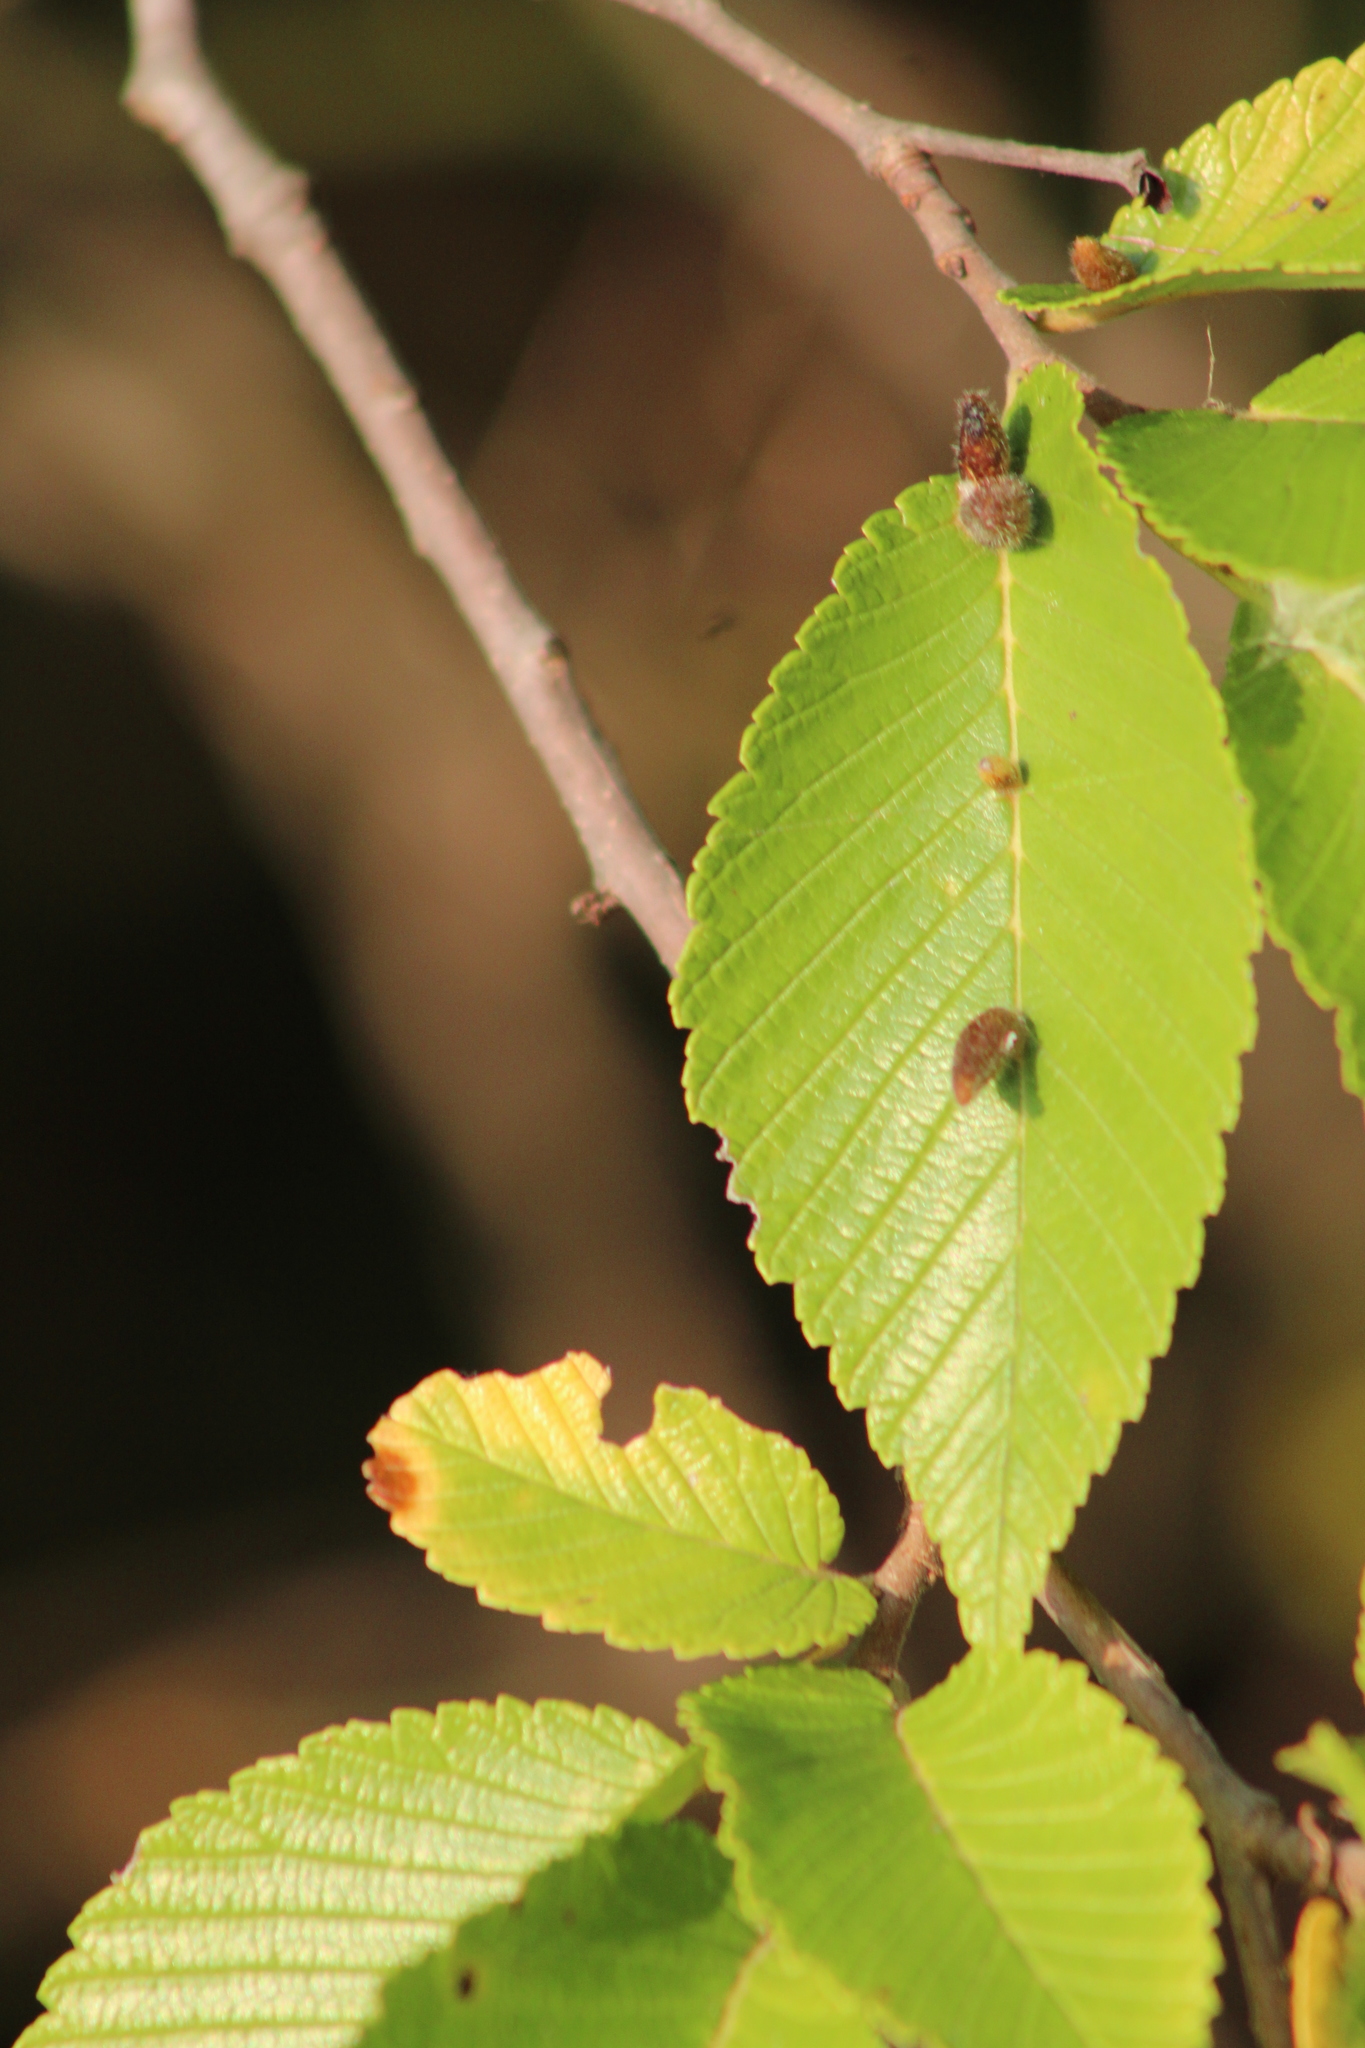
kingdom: Animalia
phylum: Arthropoda
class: Arachnida
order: Trombidiformes
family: Eriophyidae
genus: Aceria
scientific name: Aceria
